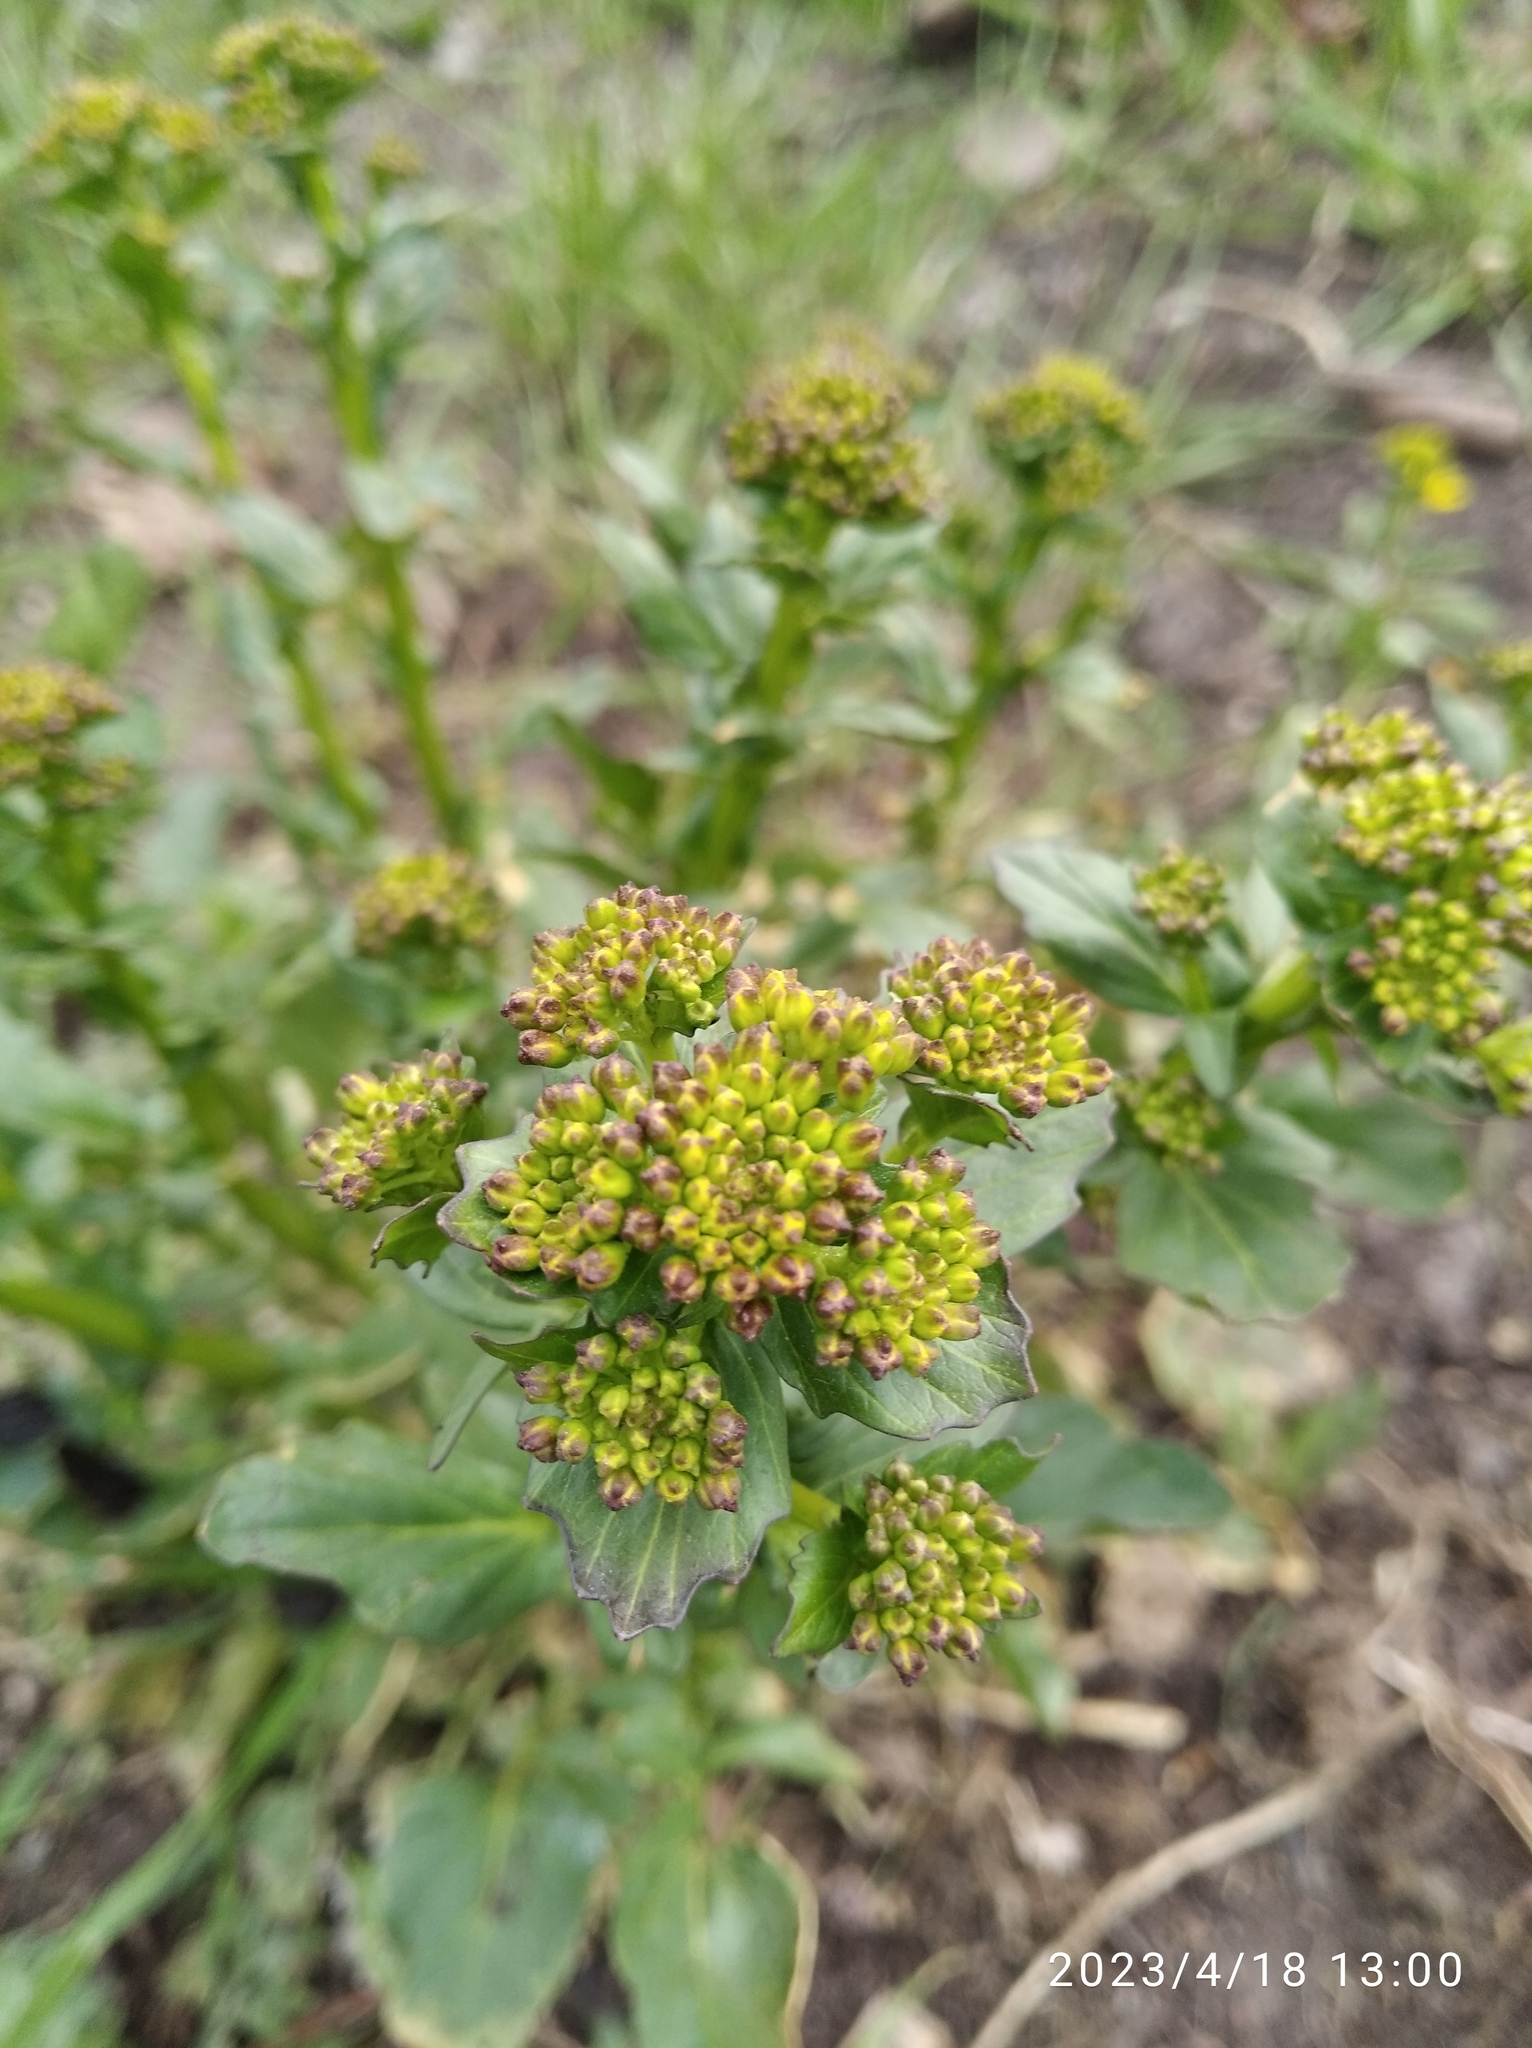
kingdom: Plantae
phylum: Tracheophyta
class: Magnoliopsida
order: Brassicales
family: Brassicaceae
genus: Barbarea
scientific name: Barbarea vulgaris
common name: Cressy-greens
